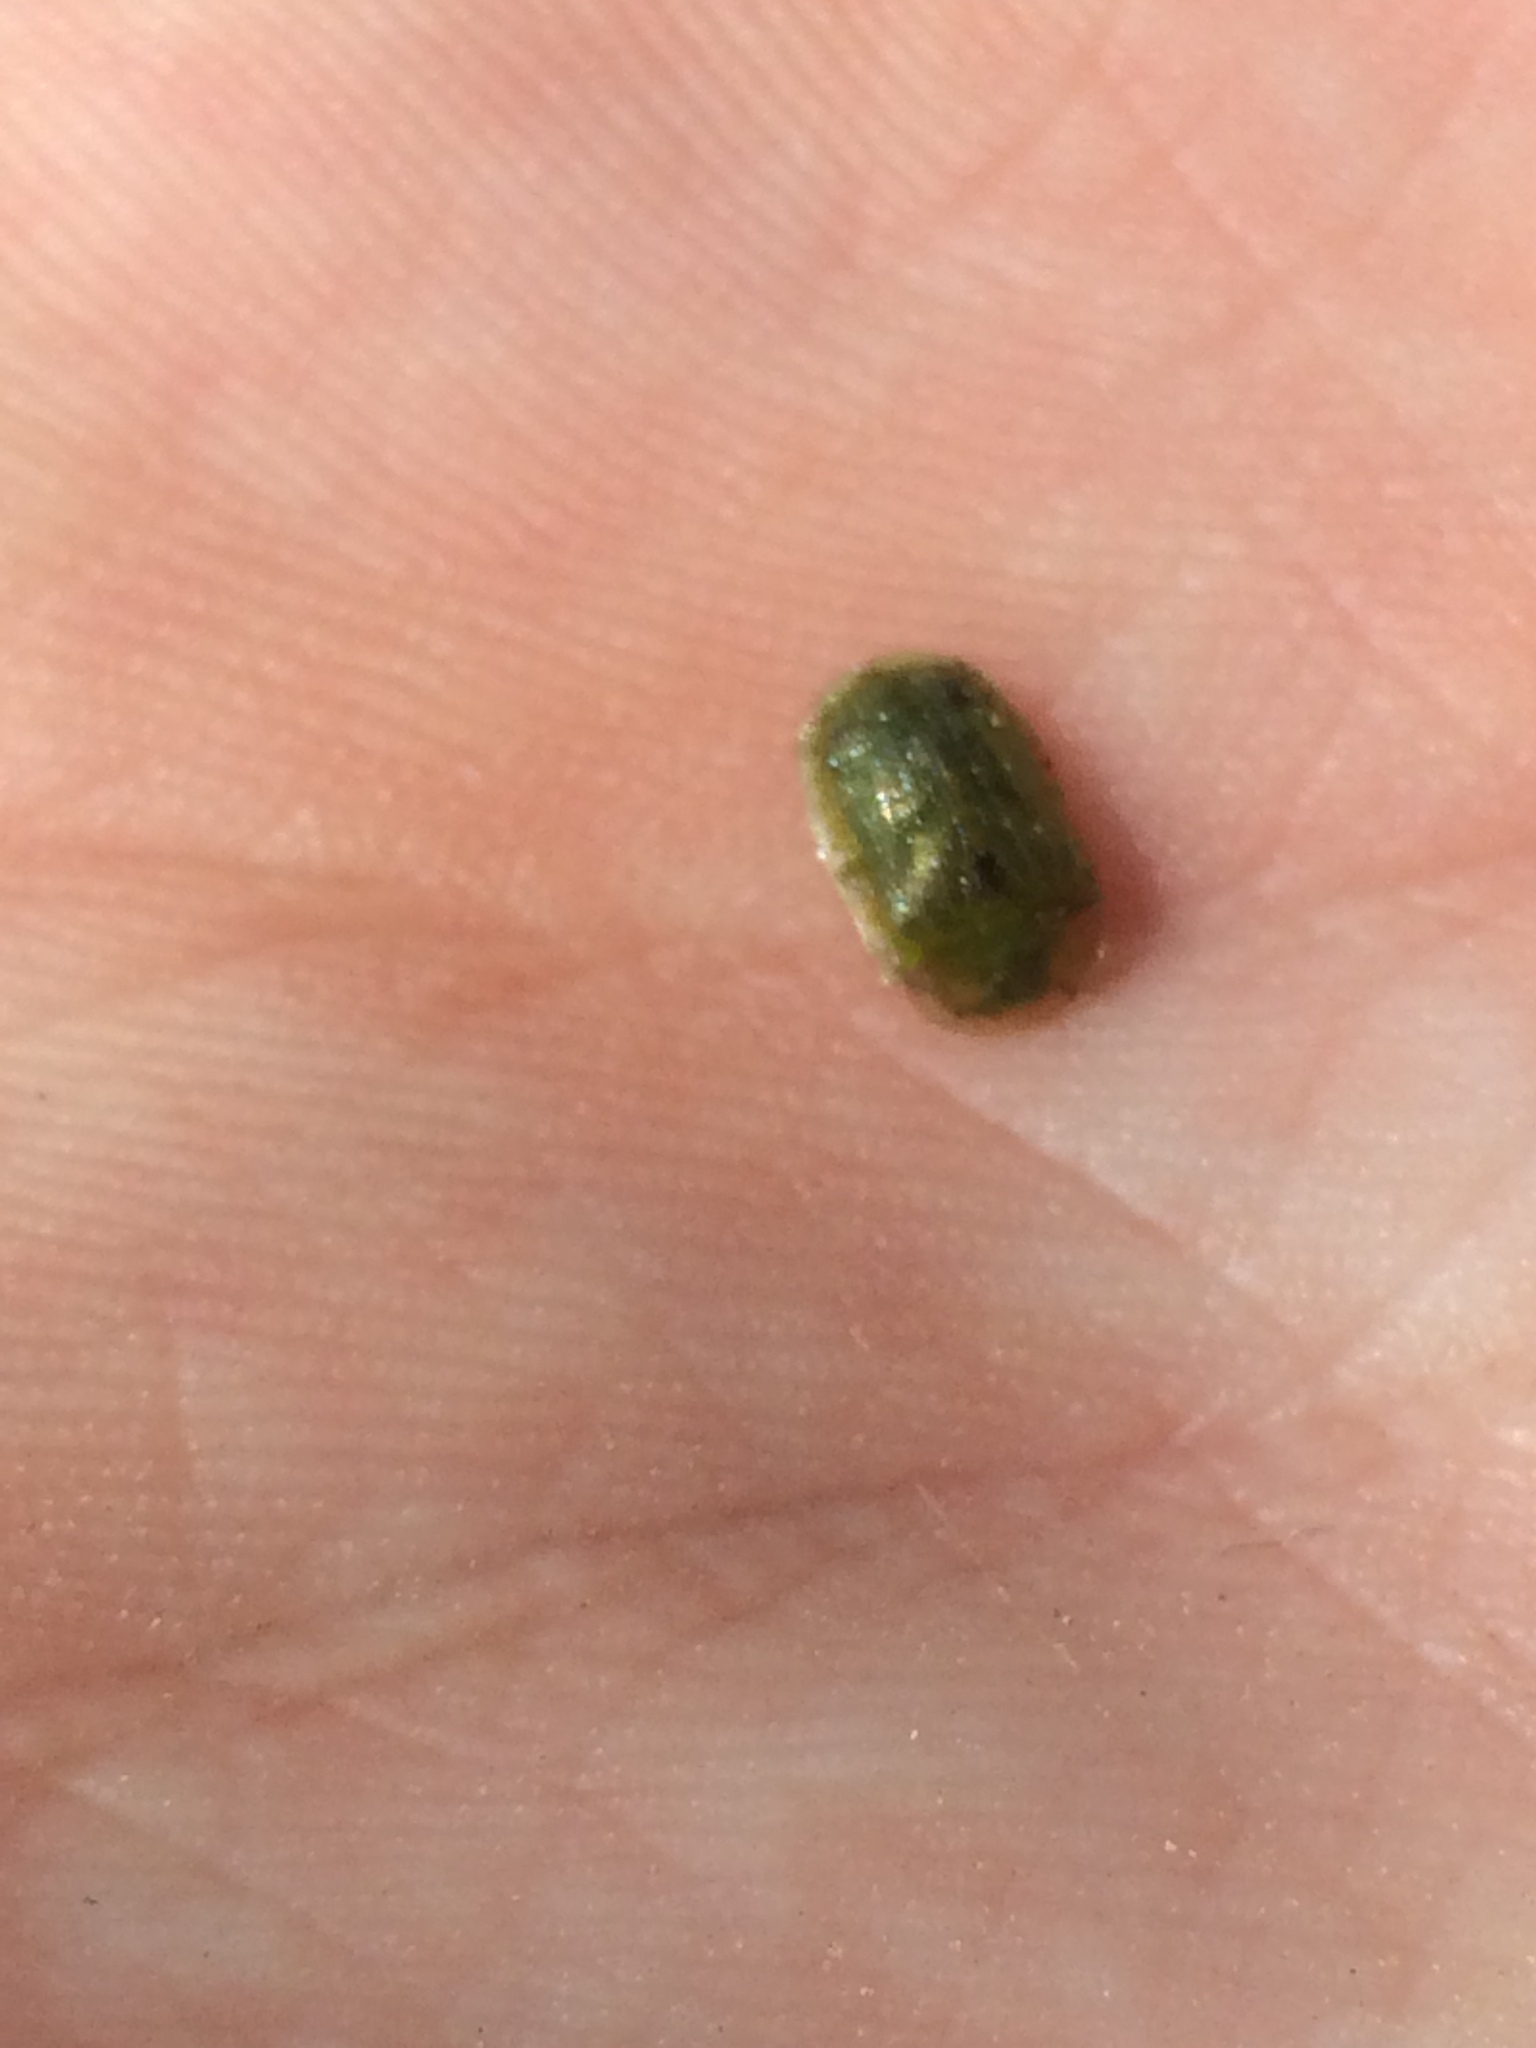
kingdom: Animalia
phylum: Arthropoda
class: Insecta
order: Coleoptera
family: Chrysomelidae
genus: Gratiana
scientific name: Gratiana pallidula
